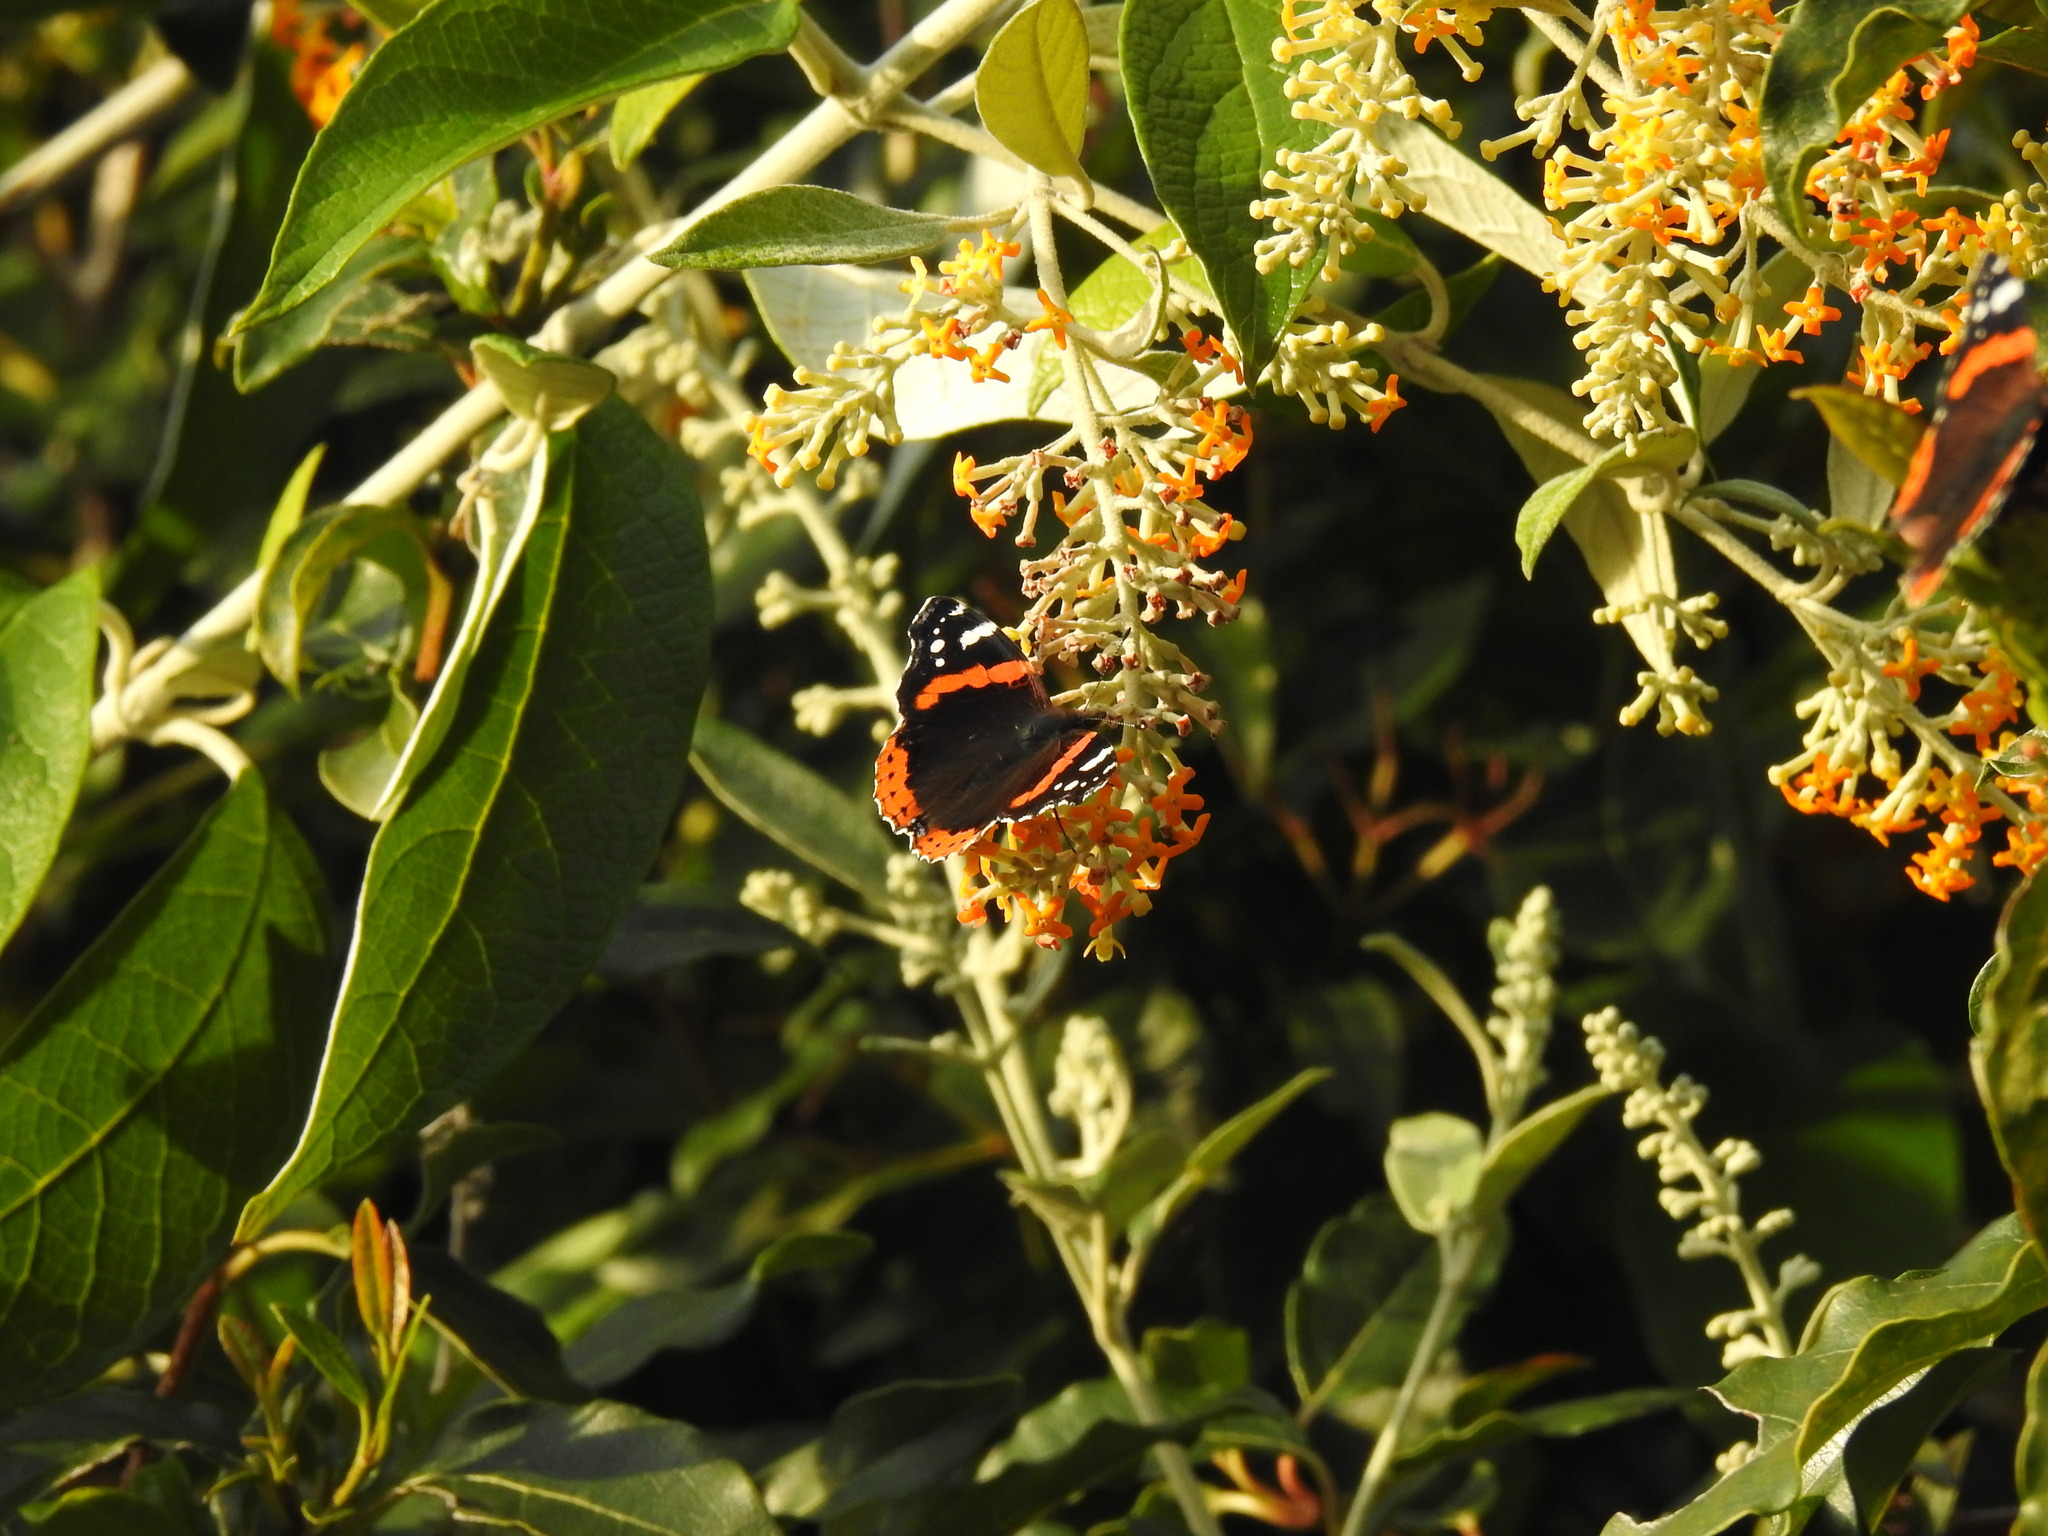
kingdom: Animalia
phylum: Arthropoda
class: Insecta
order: Lepidoptera
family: Nymphalidae
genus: Vanessa
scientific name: Vanessa atalanta
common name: Red admiral
